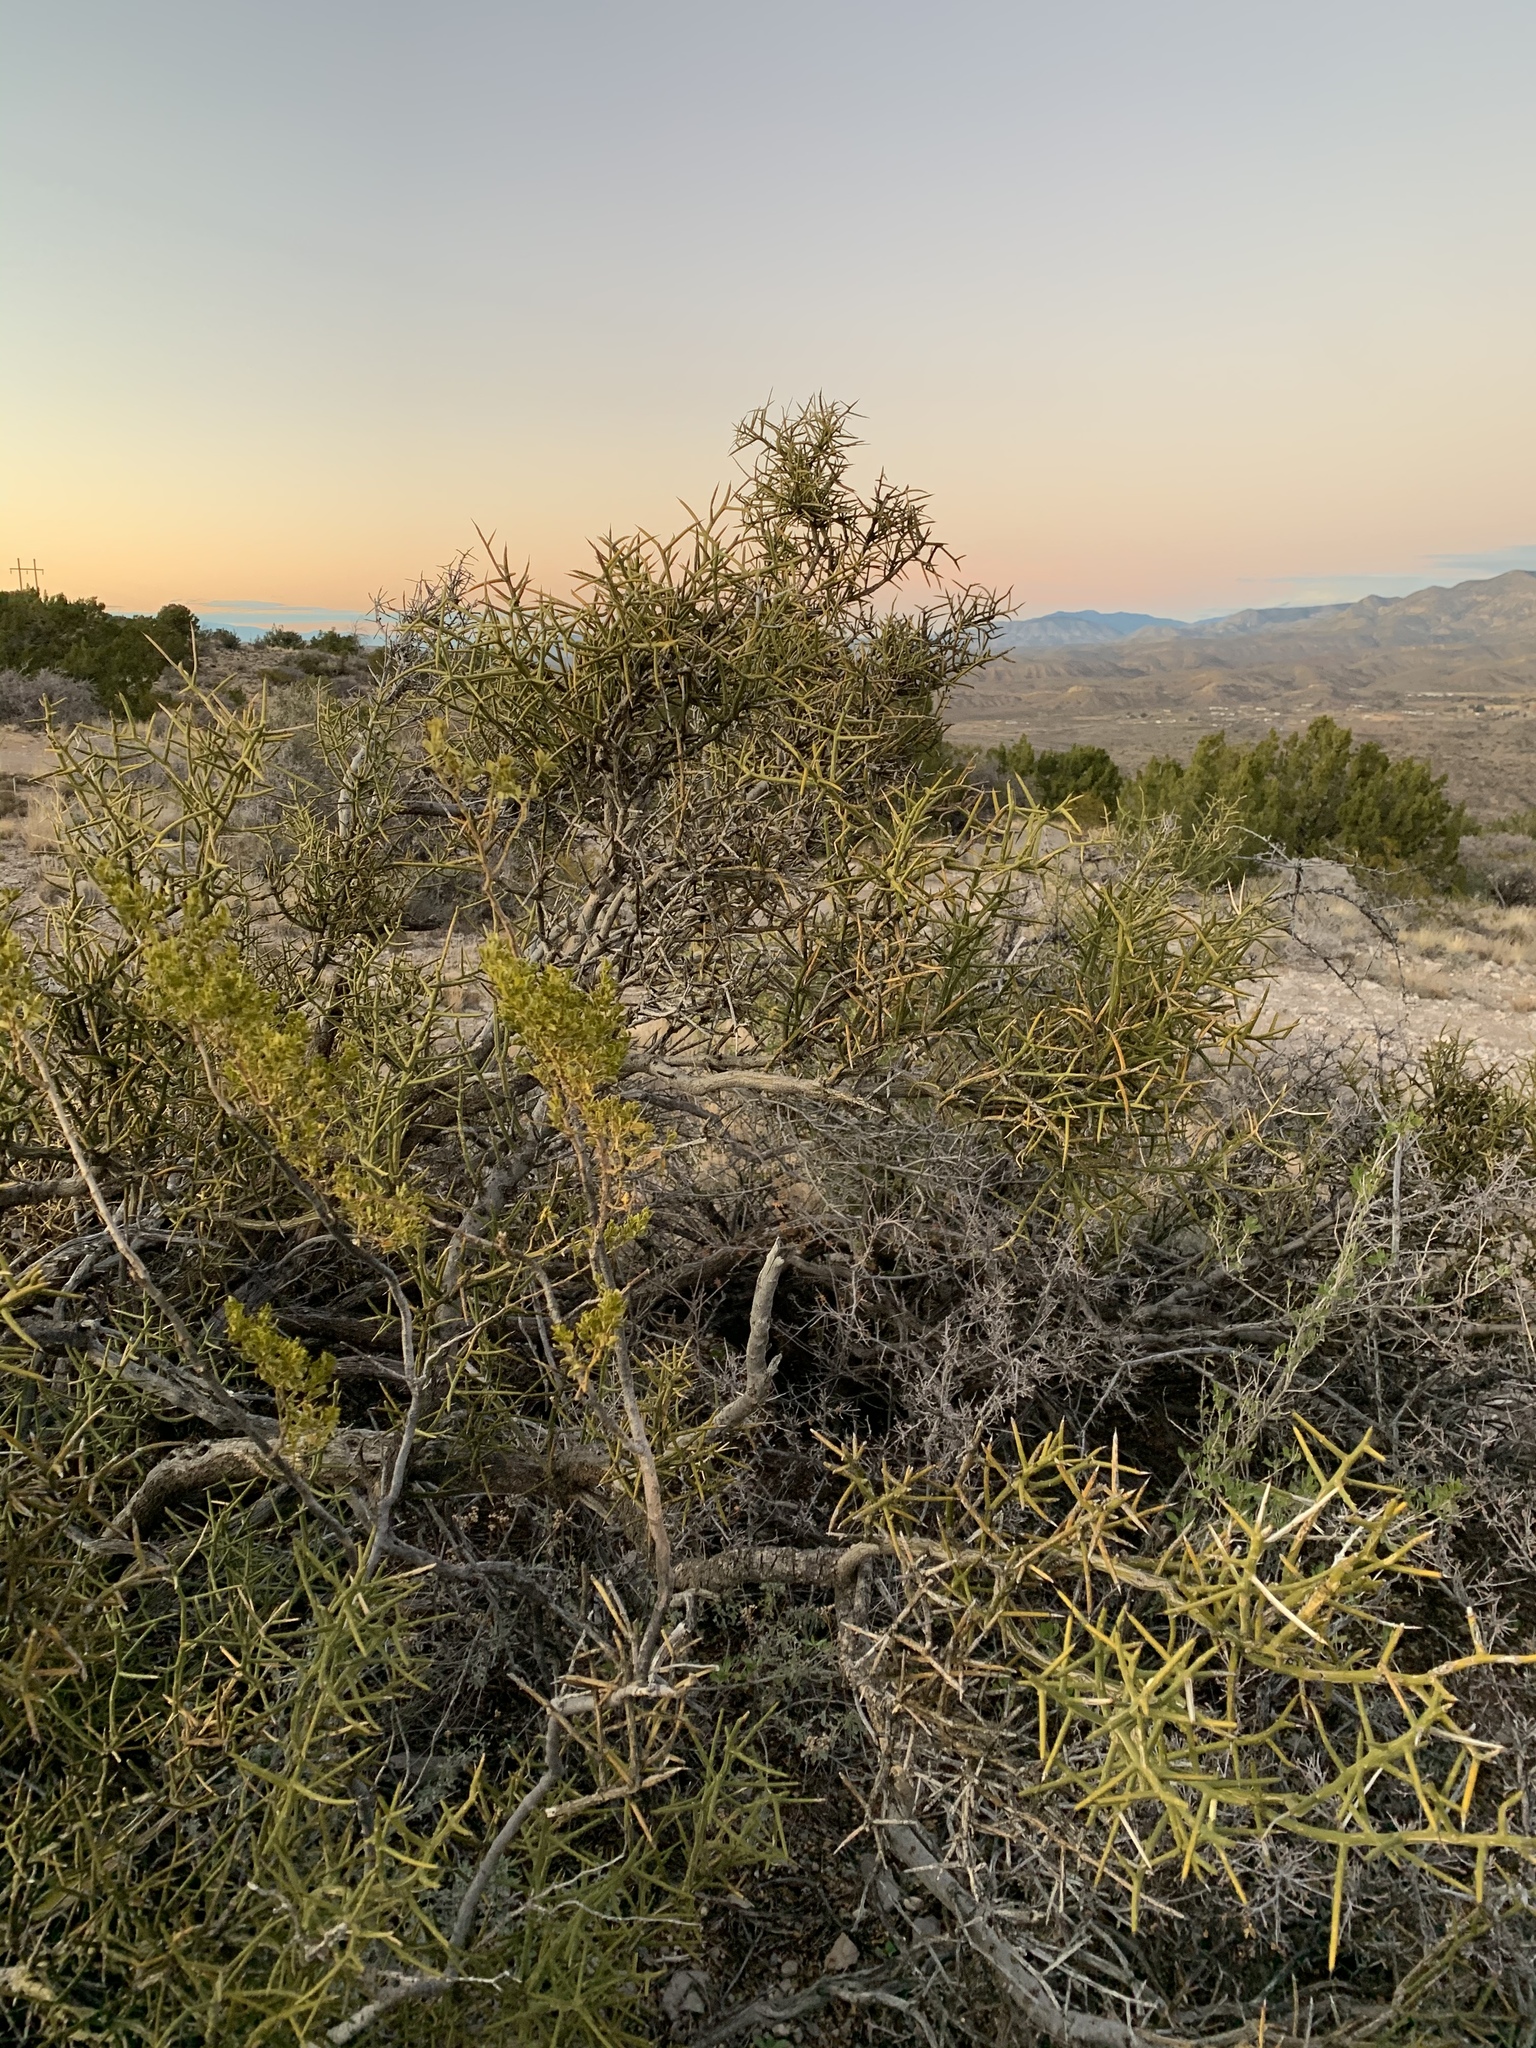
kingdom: Plantae
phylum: Tracheophyta
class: Magnoliopsida
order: Brassicales
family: Koeberliniaceae
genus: Koeberlinia
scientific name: Koeberlinia spinosa
